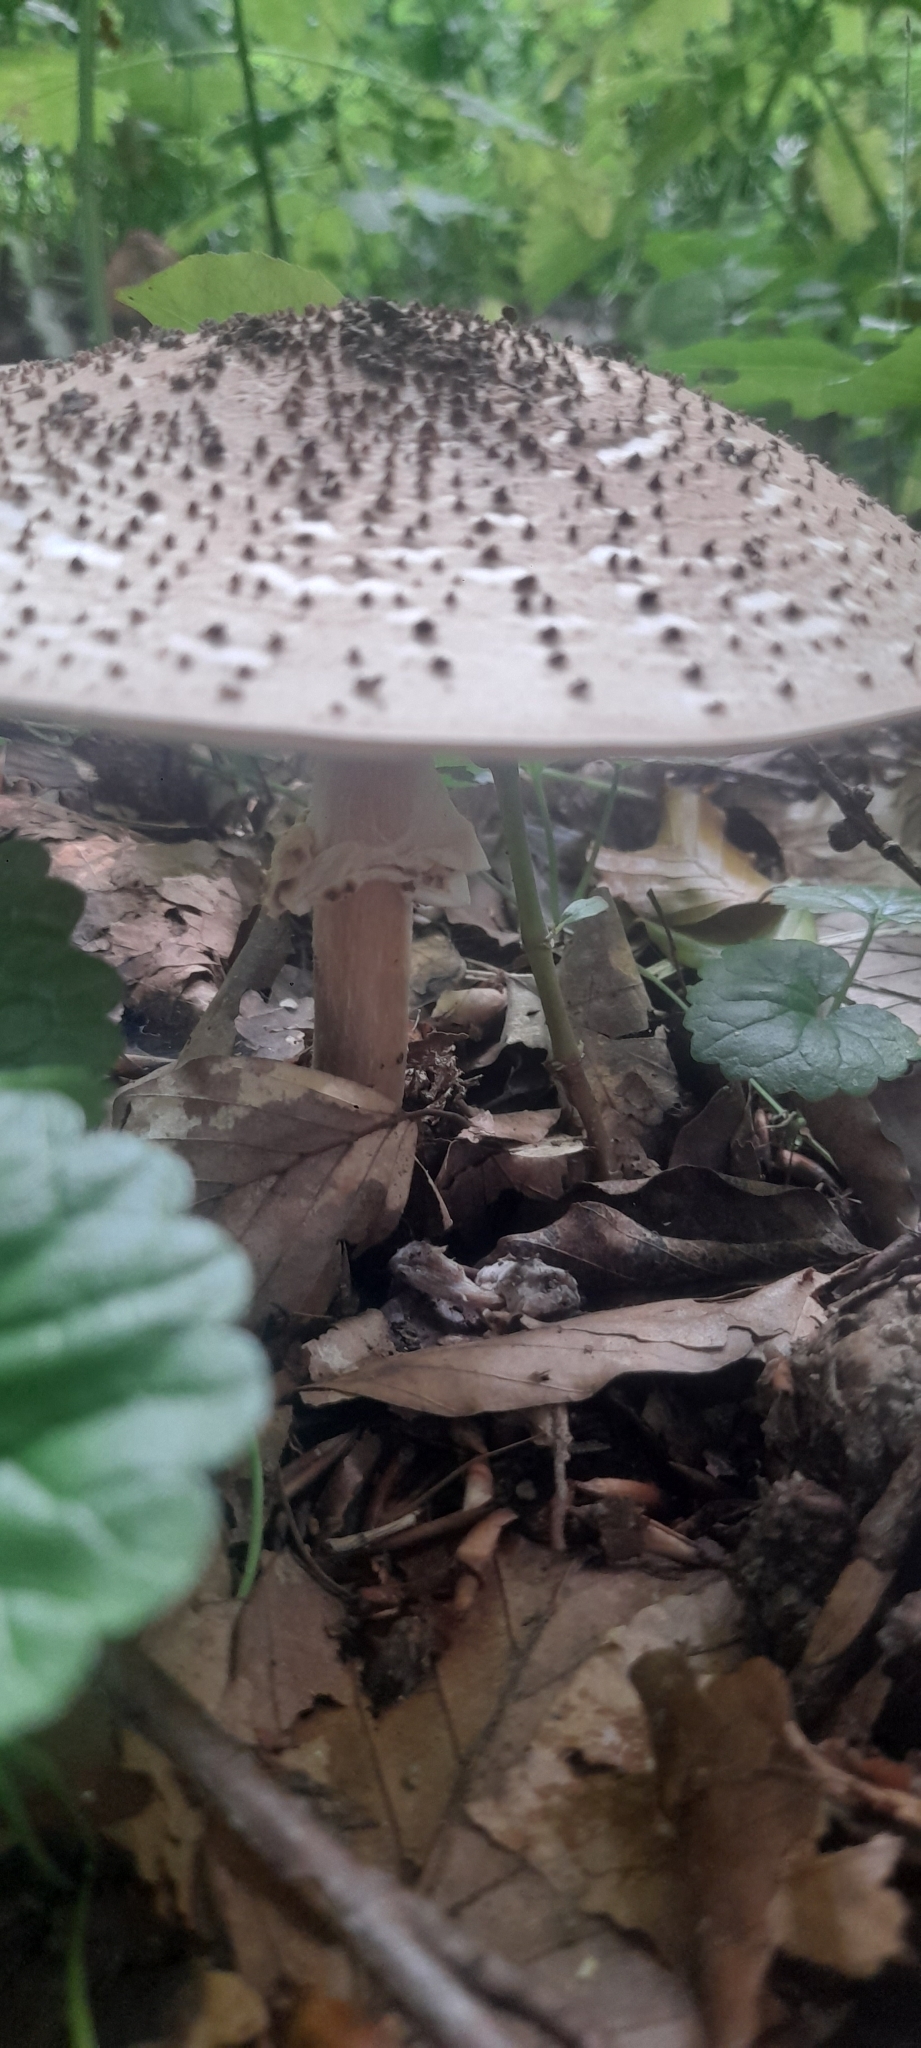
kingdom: Fungi
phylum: Basidiomycota
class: Agaricomycetes
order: Agaricales
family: Agaricaceae
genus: Echinoderma
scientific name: Echinoderma asperum
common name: Freckled dapperling
